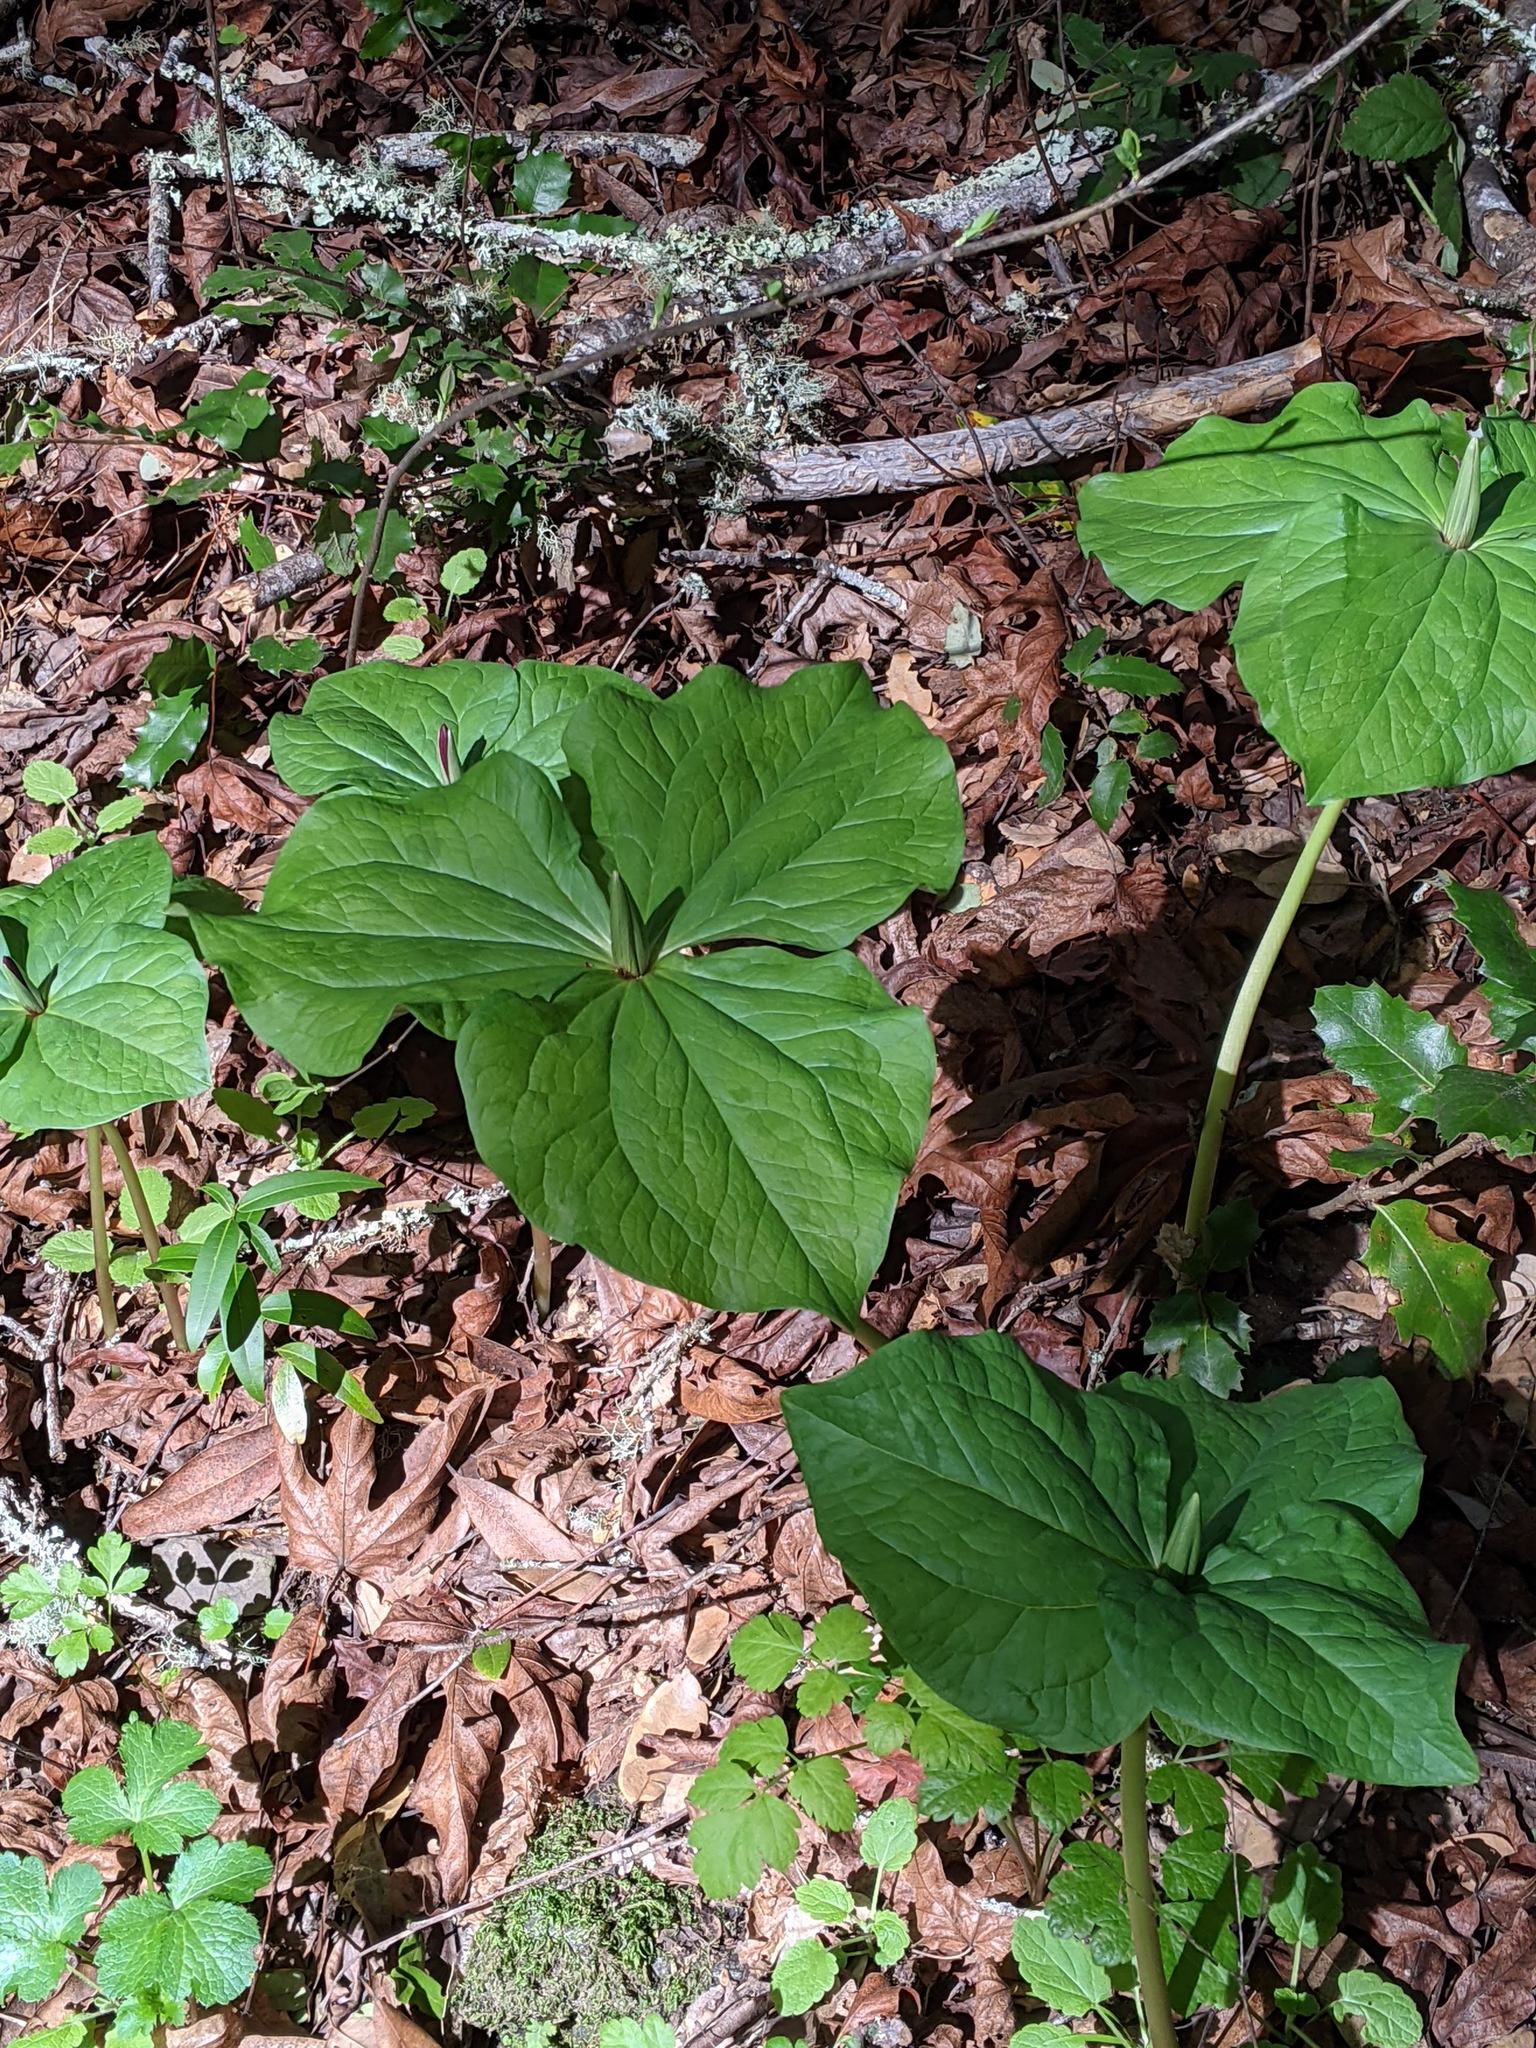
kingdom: Plantae
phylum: Tracheophyta
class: Liliopsida
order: Liliales
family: Melanthiaceae
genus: Trillium
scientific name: Trillium chloropetalum
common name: Giant trillium
